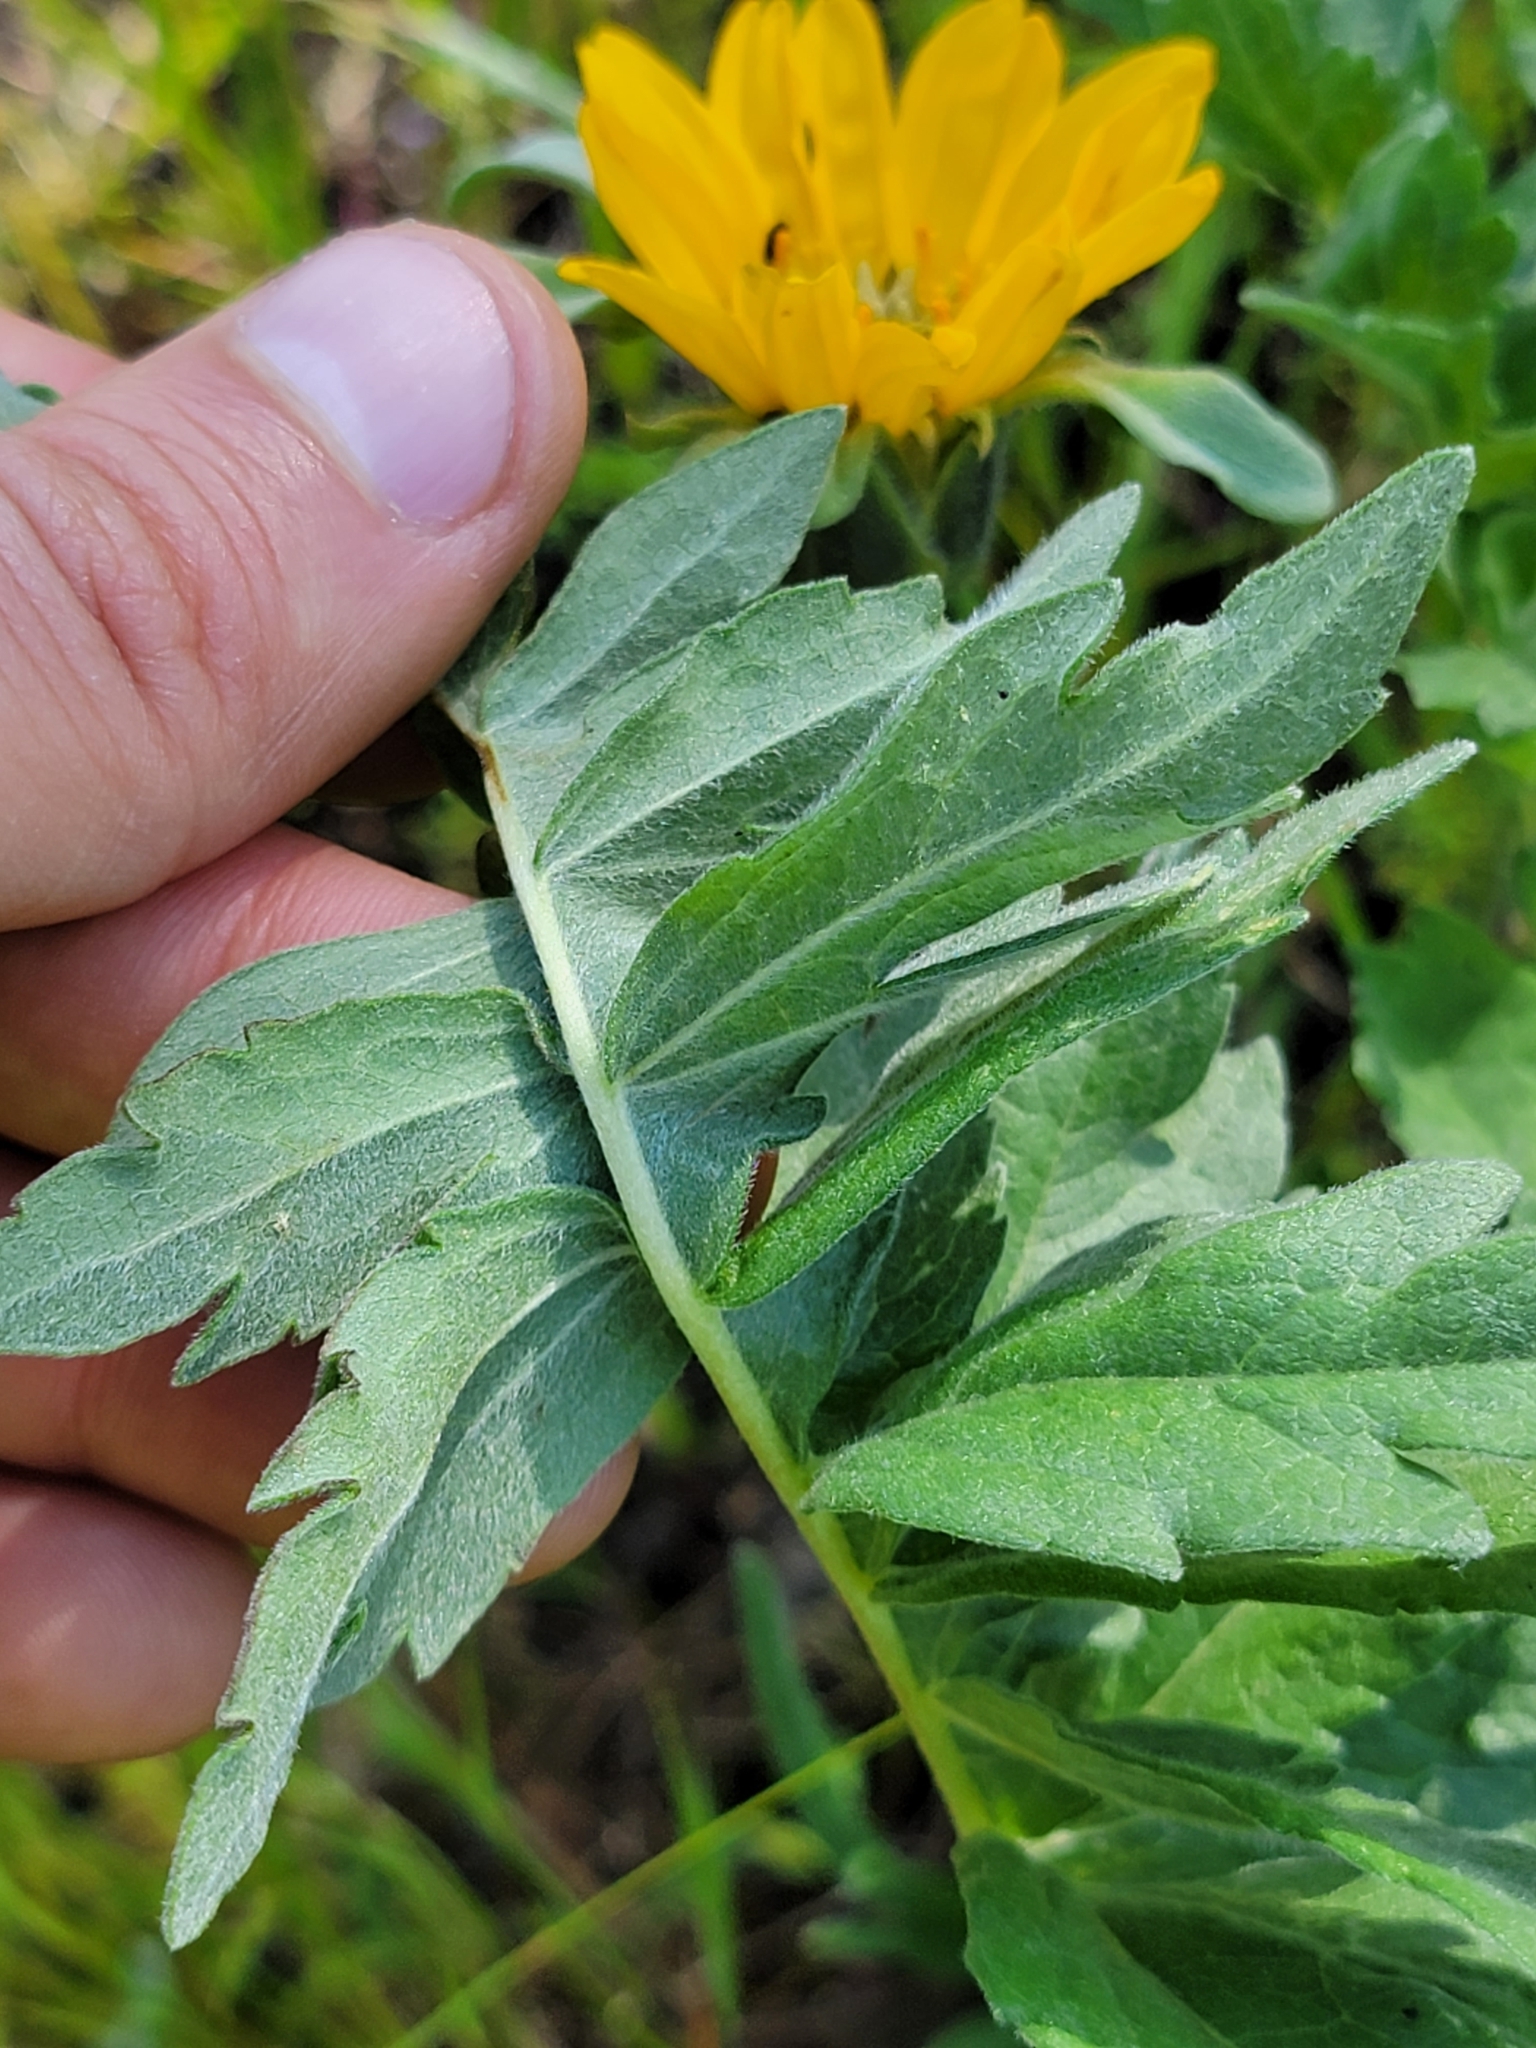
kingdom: Plantae
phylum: Tracheophyta
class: Magnoliopsida
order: Asterales
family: Asteraceae
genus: Balsamorhiza
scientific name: Balsamorhiza macrolepis
